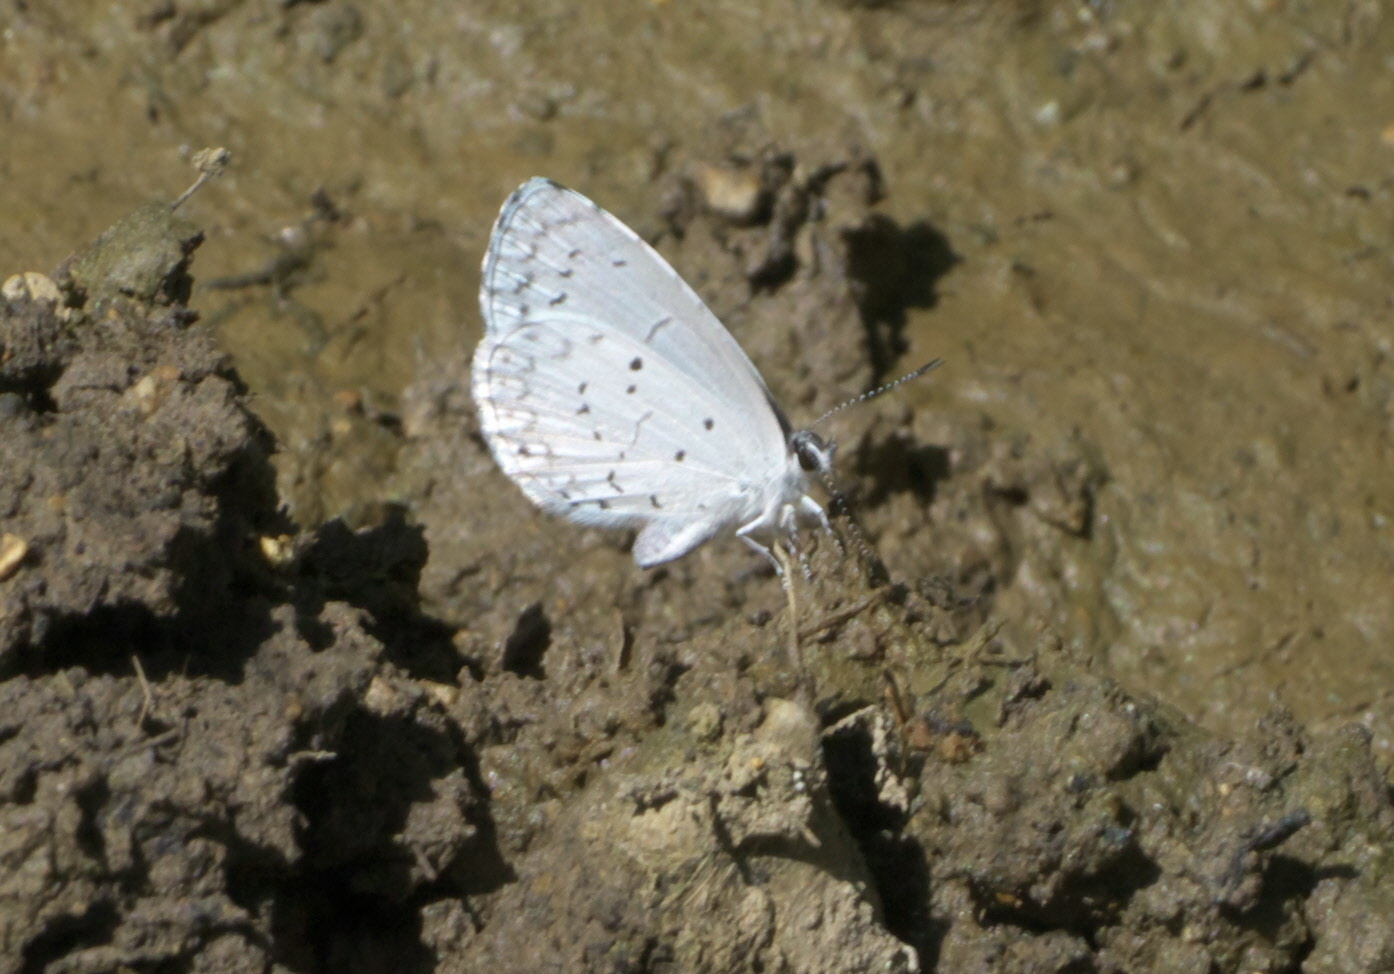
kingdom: Animalia
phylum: Arthropoda
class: Insecta
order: Lepidoptera
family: Lycaenidae
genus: Cyaniris
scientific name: Cyaniris neglecta
